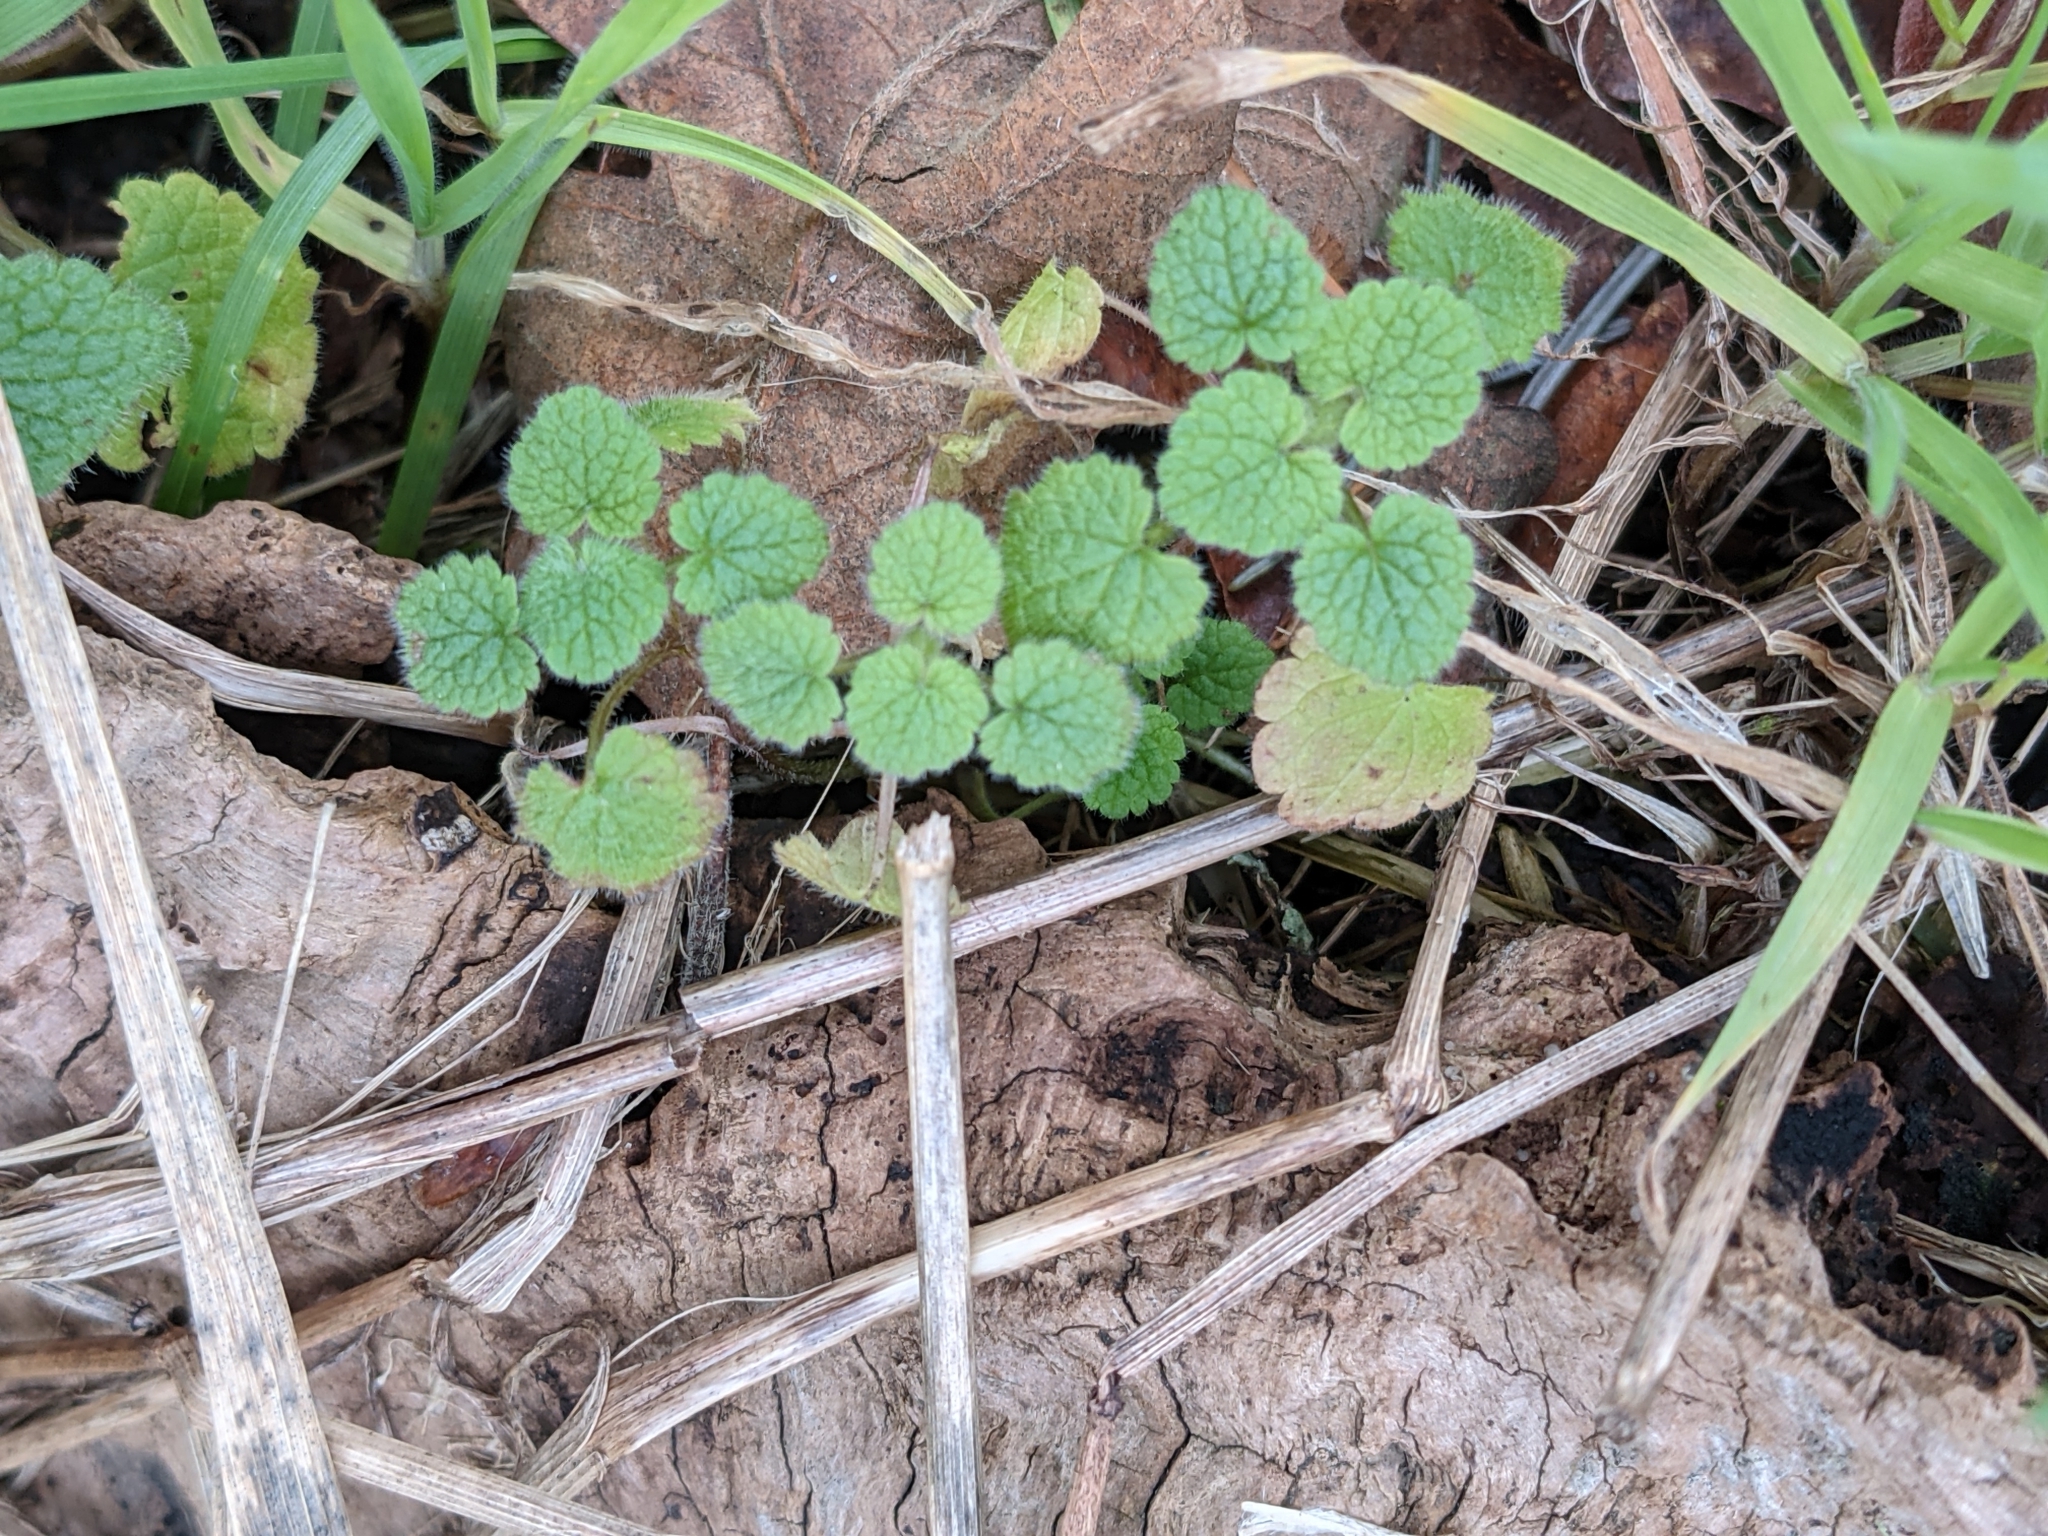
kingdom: Plantae
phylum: Tracheophyta
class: Magnoliopsida
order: Lamiales
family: Lamiaceae
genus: Lamium
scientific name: Lamium purpureum
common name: Red dead-nettle
